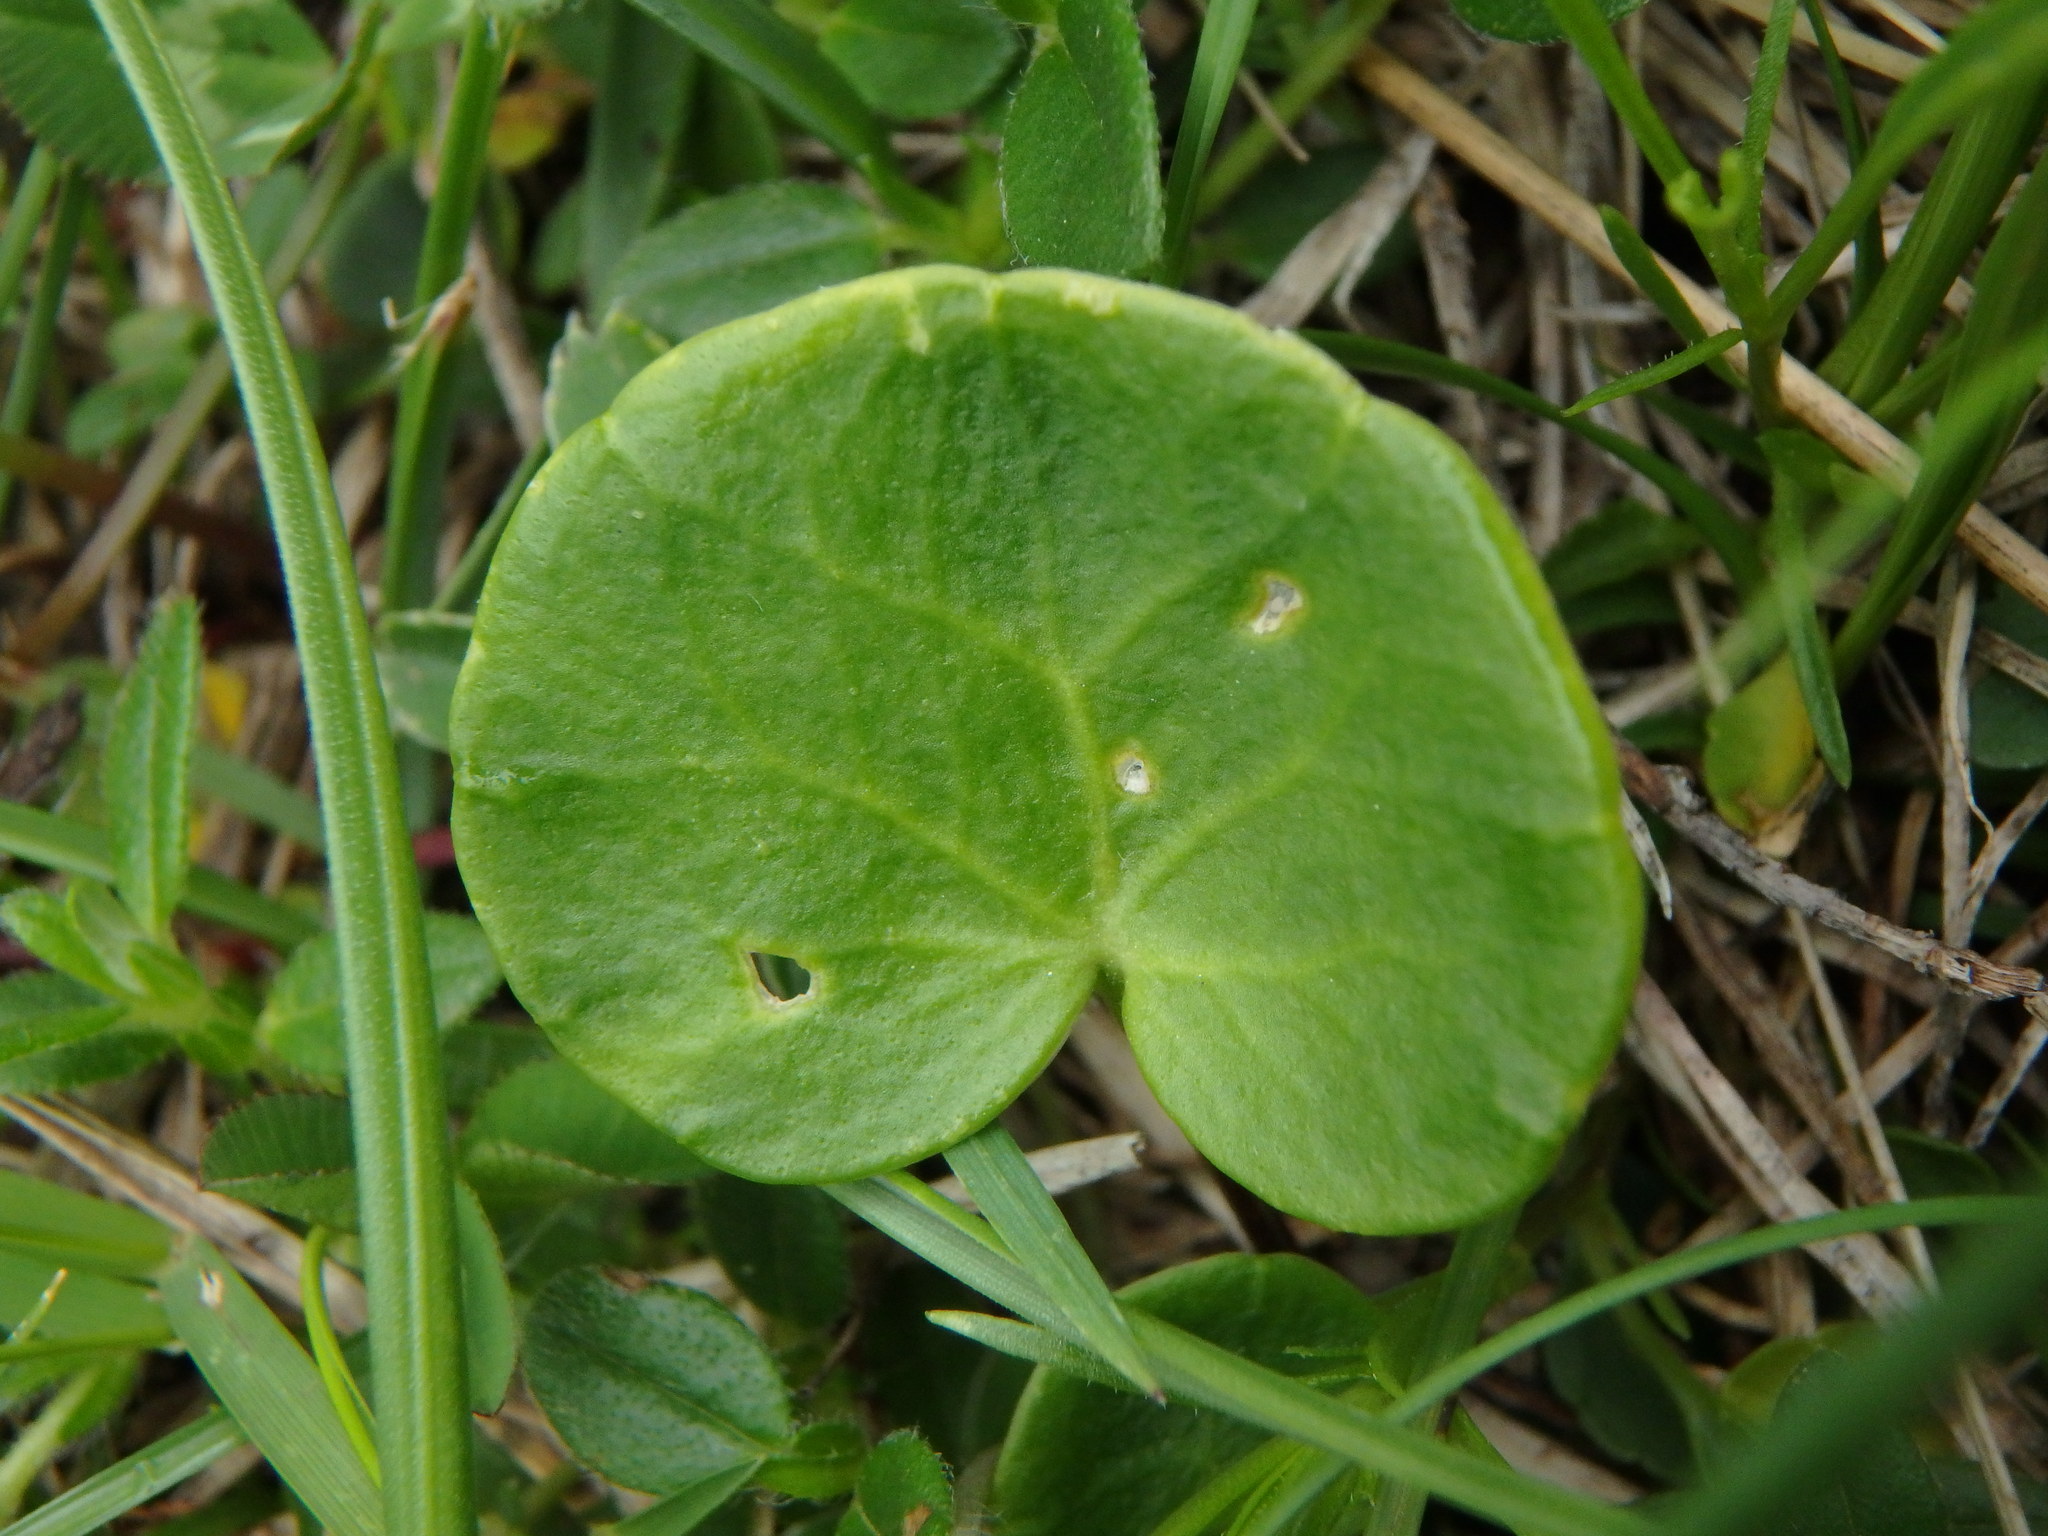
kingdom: Plantae
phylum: Tracheophyta
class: Magnoliopsida
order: Ericales
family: Primulaceae
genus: Soldanella
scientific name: Soldanella alpina
